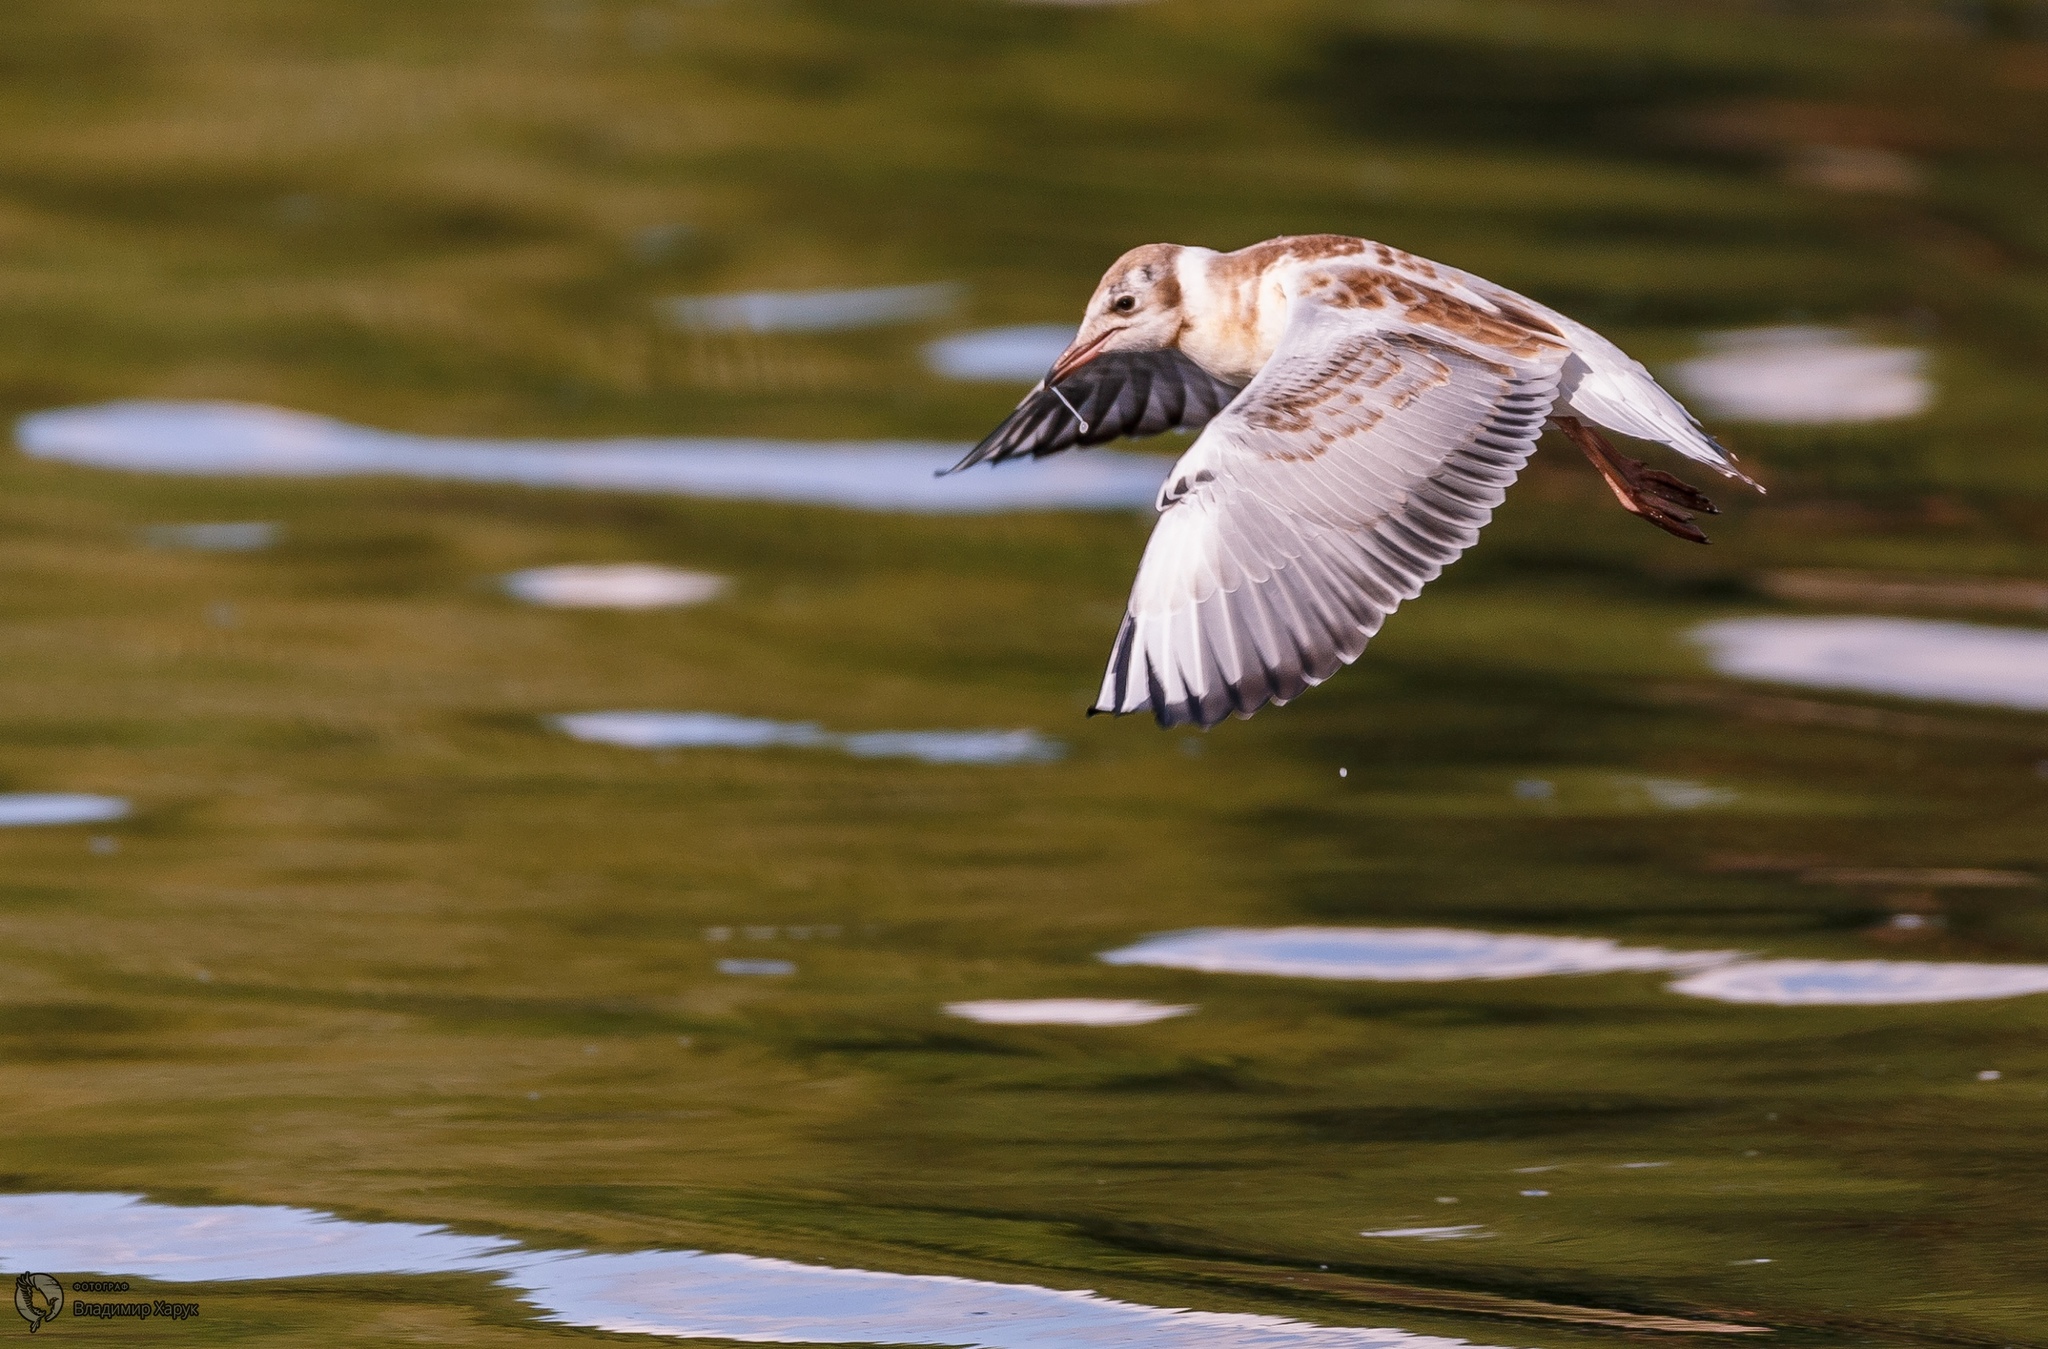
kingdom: Animalia
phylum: Chordata
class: Aves
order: Charadriiformes
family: Laridae
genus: Chroicocephalus
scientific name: Chroicocephalus ridibundus
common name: Black-headed gull
